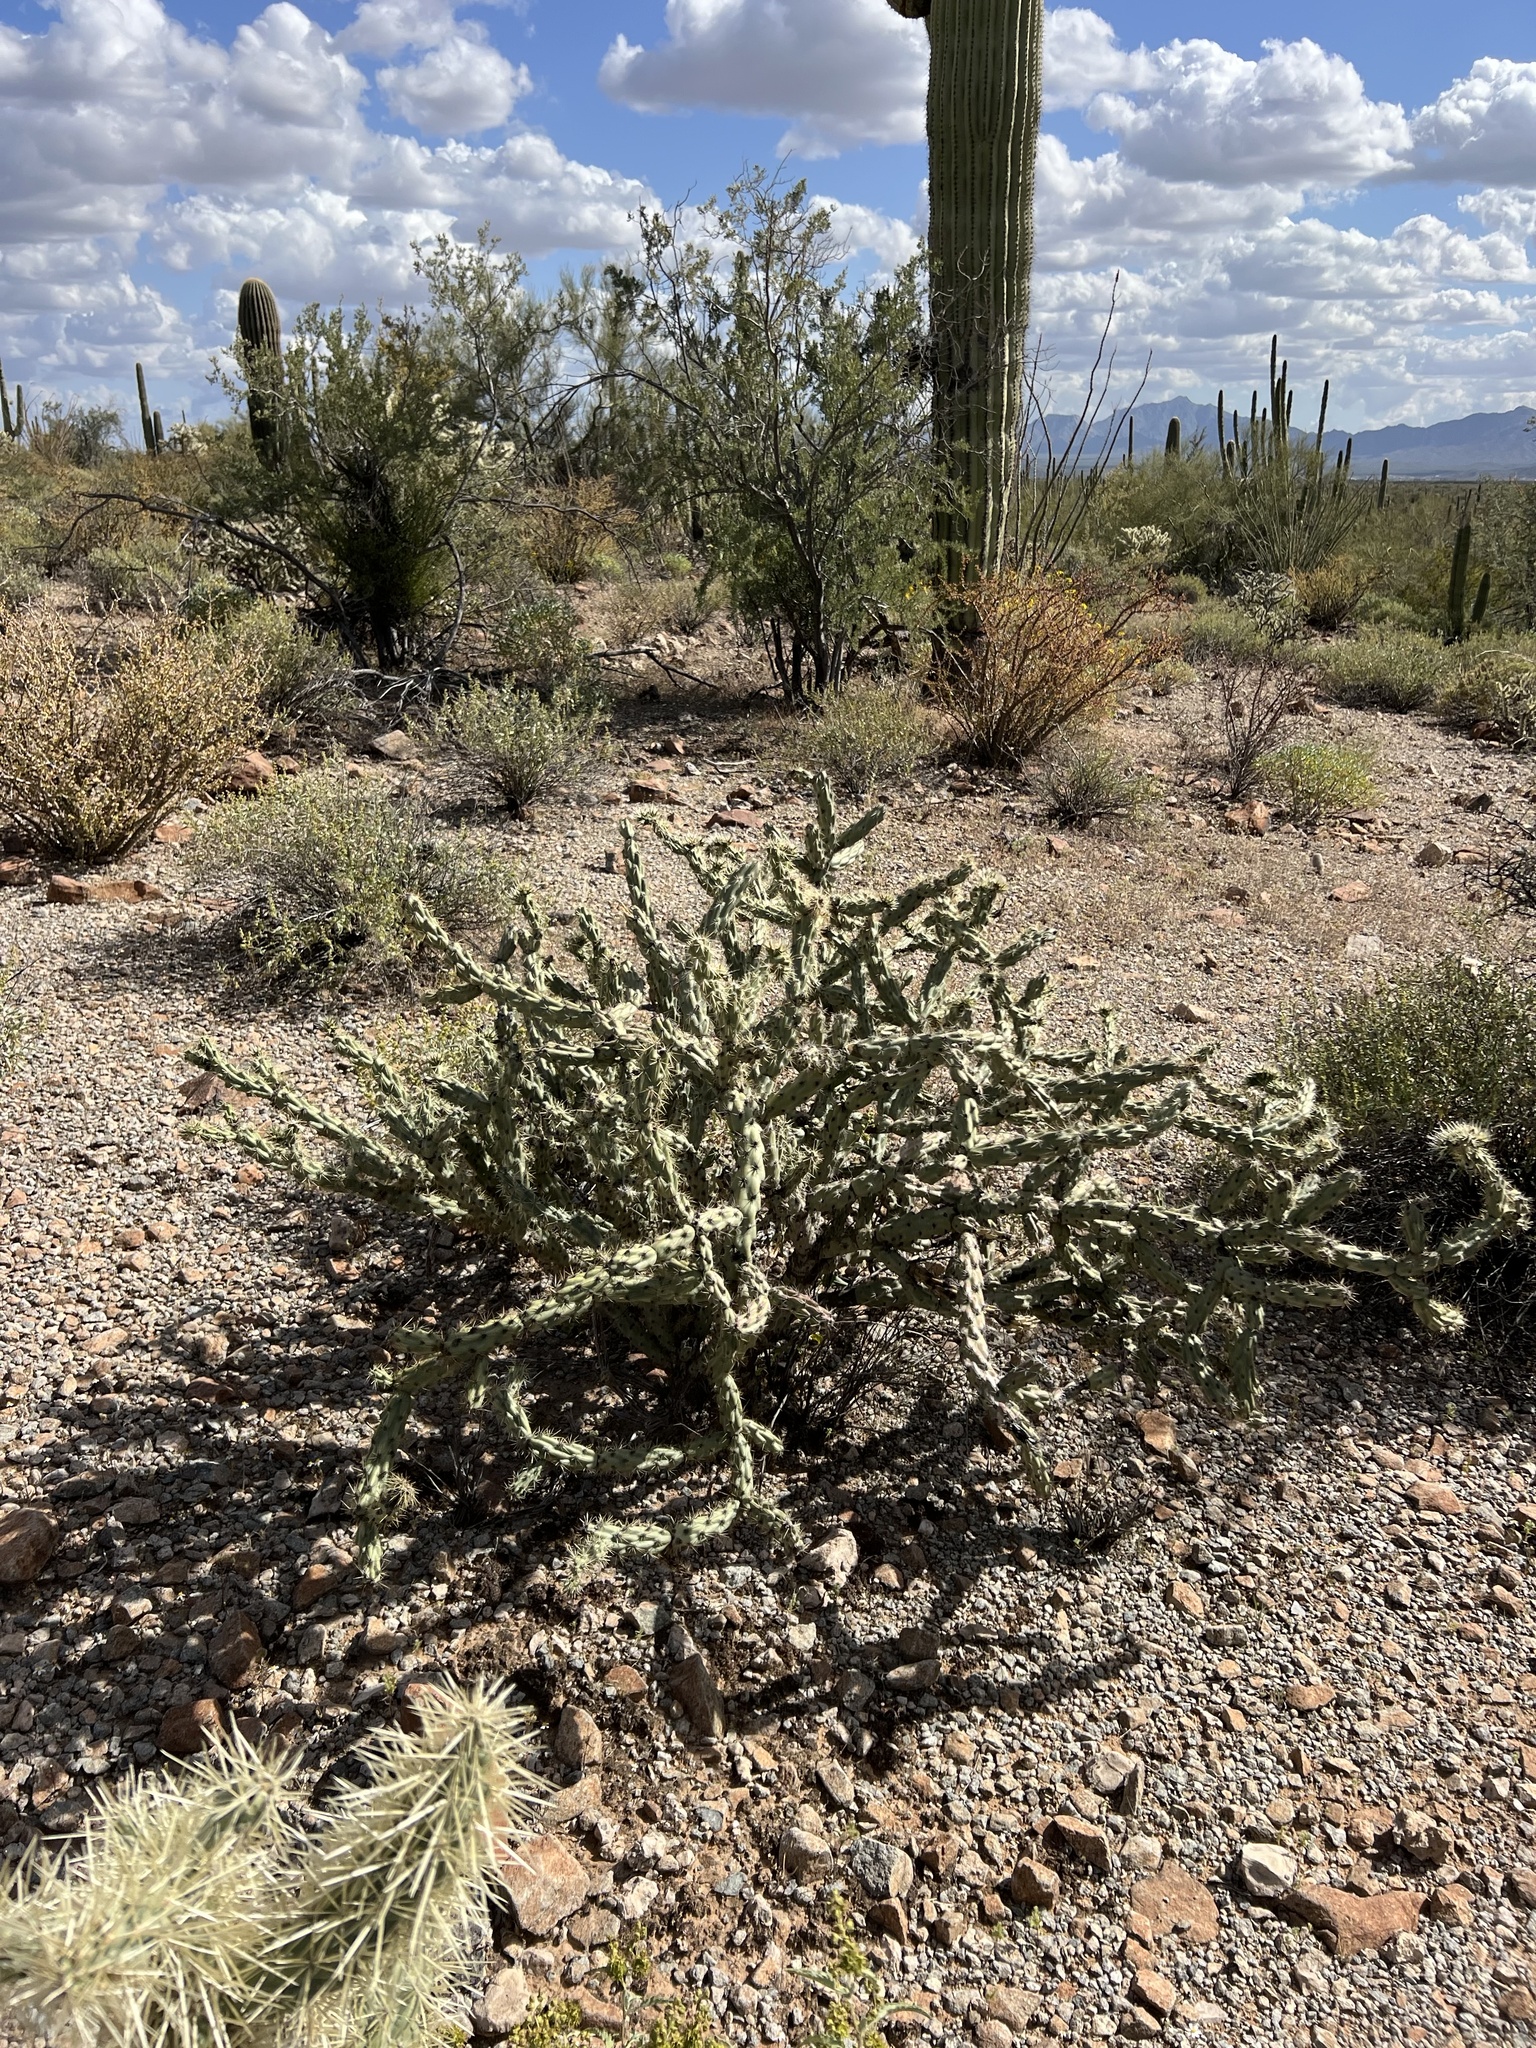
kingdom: Plantae
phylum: Tracheophyta
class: Magnoliopsida
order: Caryophyllales
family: Cactaceae
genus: Cylindropuntia
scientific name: Cylindropuntia acanthocarpa
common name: Buckhorn cholla
